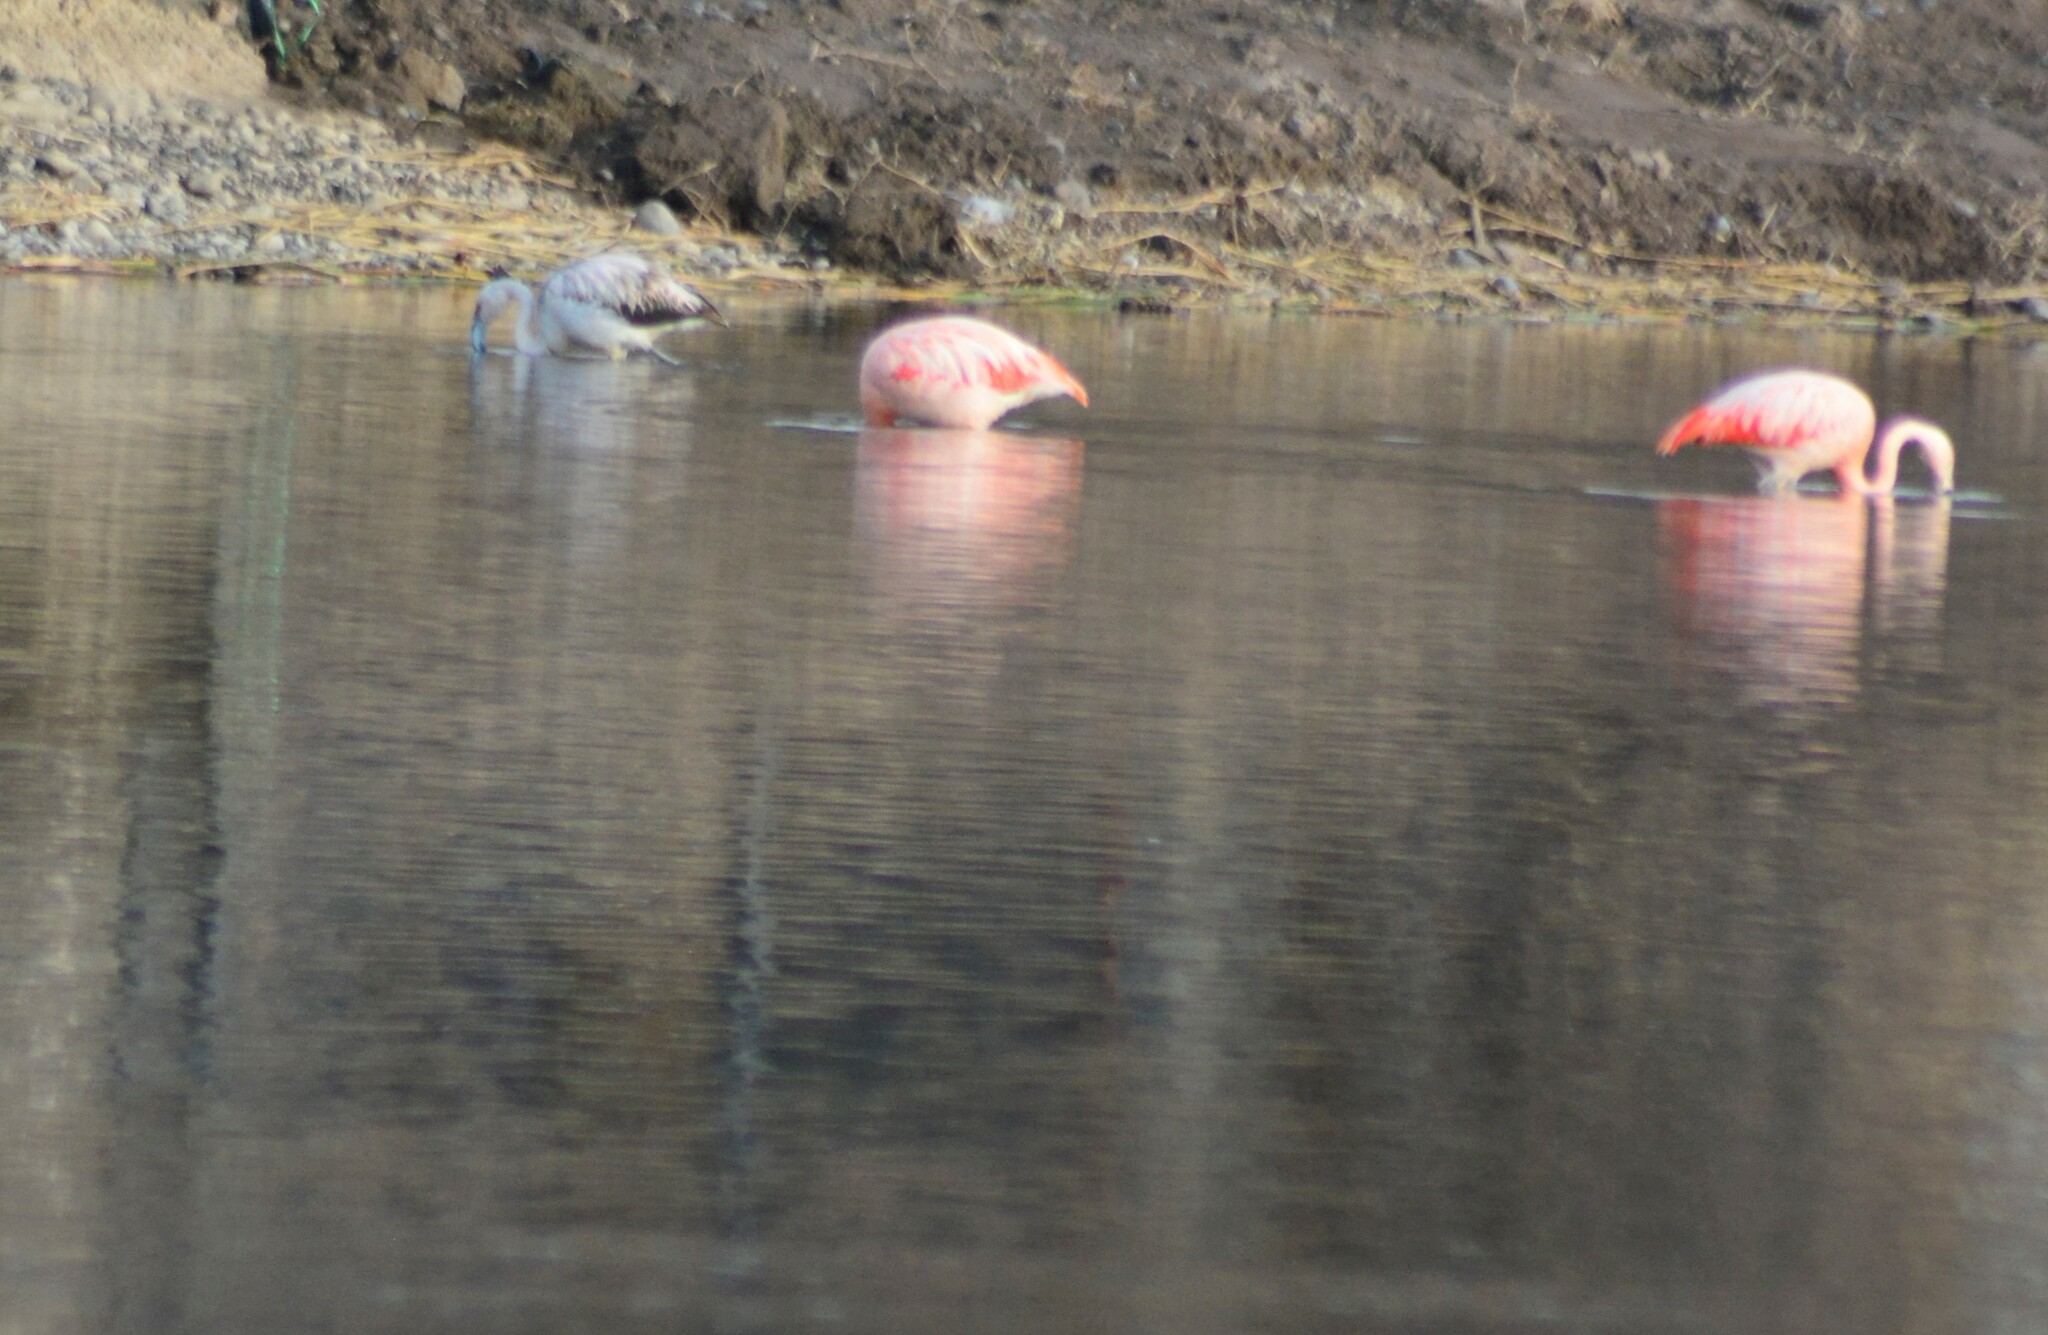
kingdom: Animalia
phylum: Chordata
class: Aves
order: Phoenicopteriformes
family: Phoenicopteridae
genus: Phoenicopterus
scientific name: Phoenicopterus chilensis
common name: Chilean flamingo
